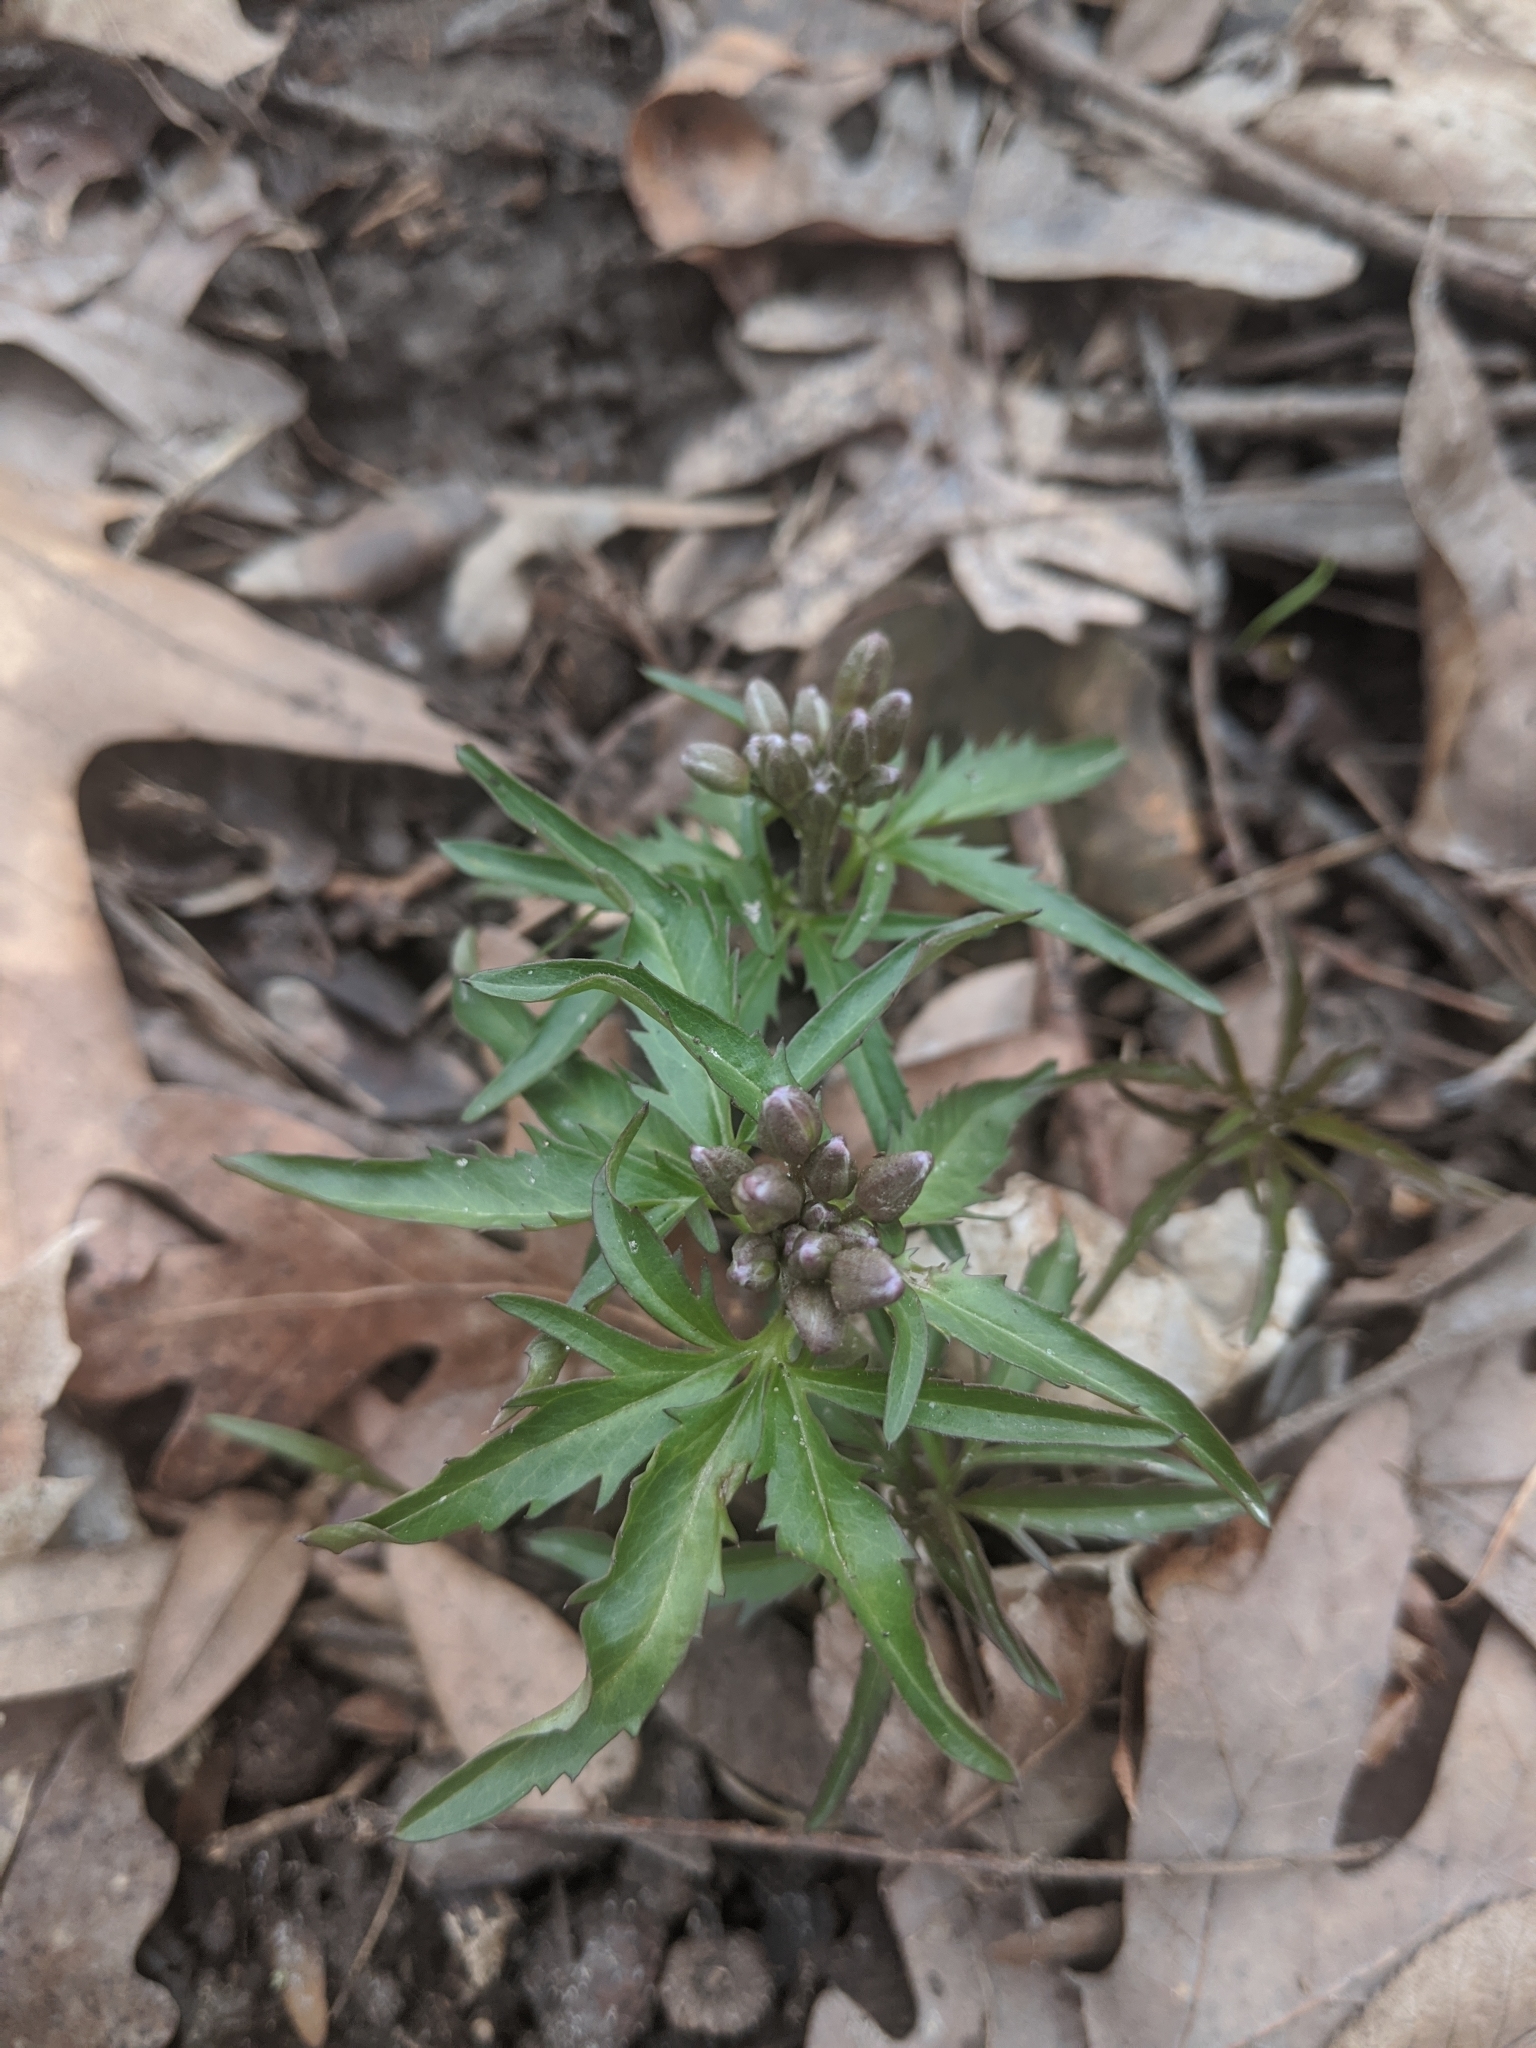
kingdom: Plantae
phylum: Tracheophyta
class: Magnoliopsida
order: Brassicales
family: Brassicaceae
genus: Cardamine
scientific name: Cardamine concatenata
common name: Cut-leaf toothcup
